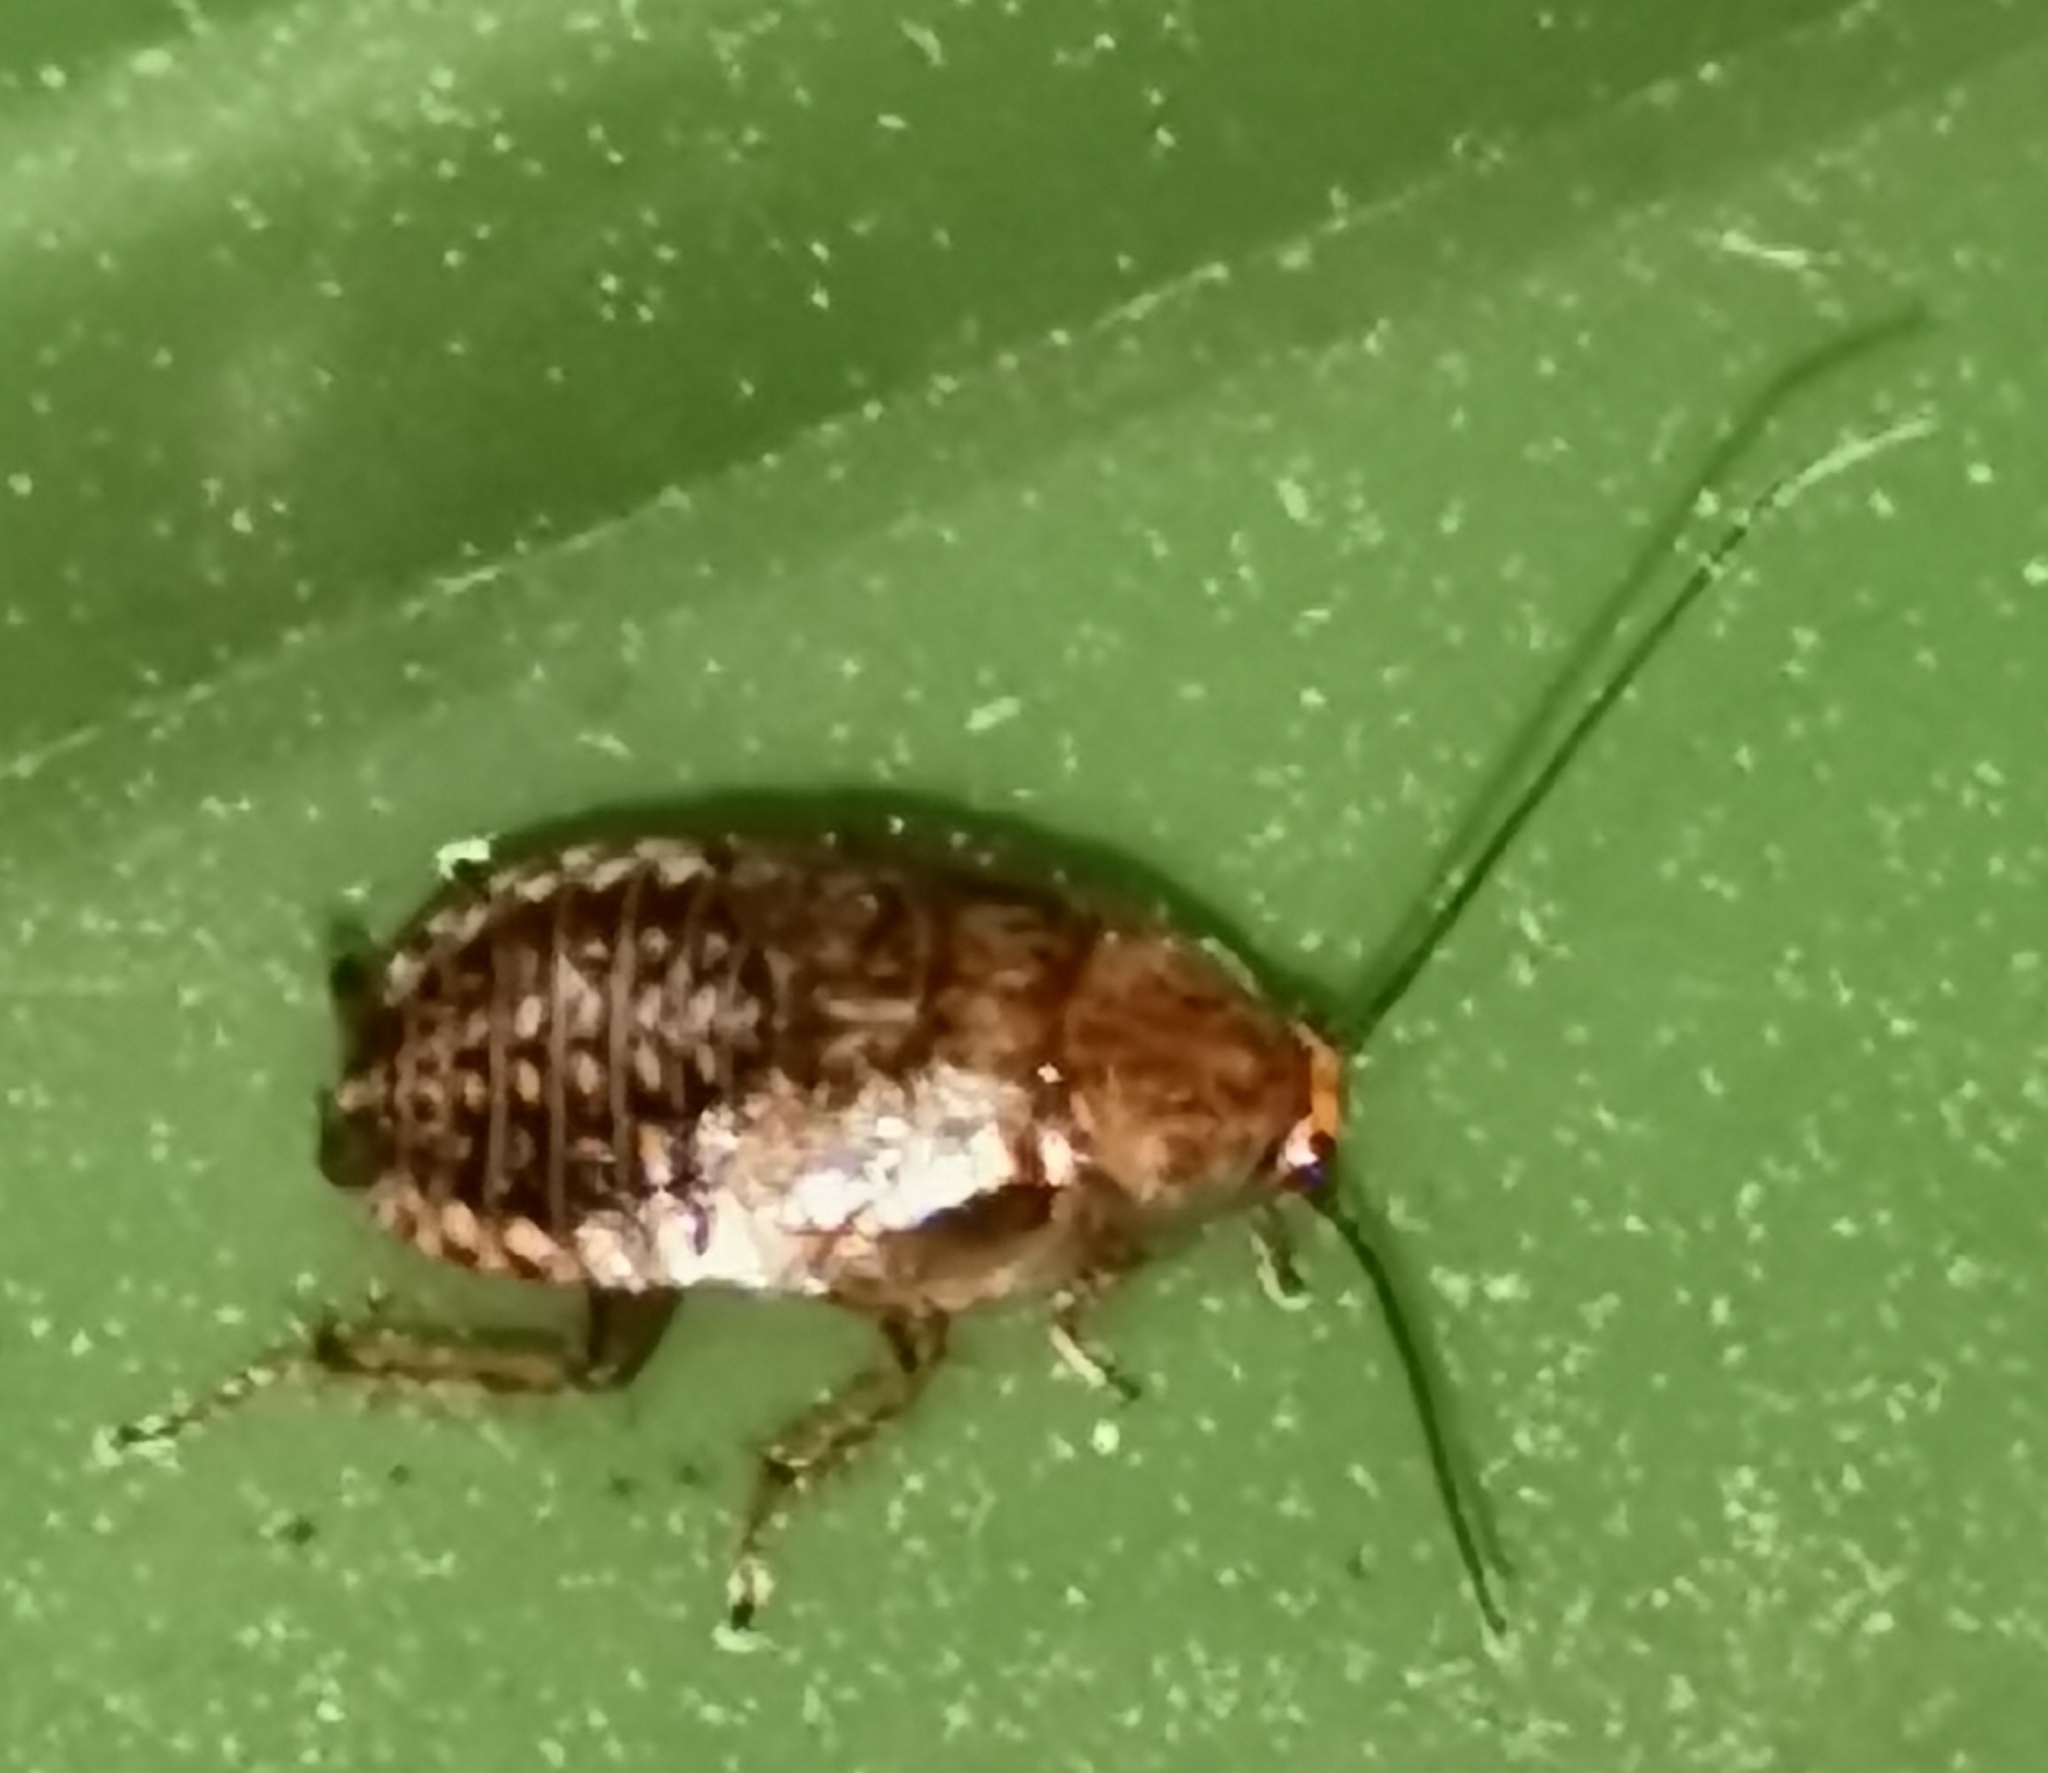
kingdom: Animalia
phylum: Arthropoda
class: Insecta
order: Blattodea
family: Ectobiidae
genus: Ectobius
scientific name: Ectobius lapponicus
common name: Dusky cockroach
